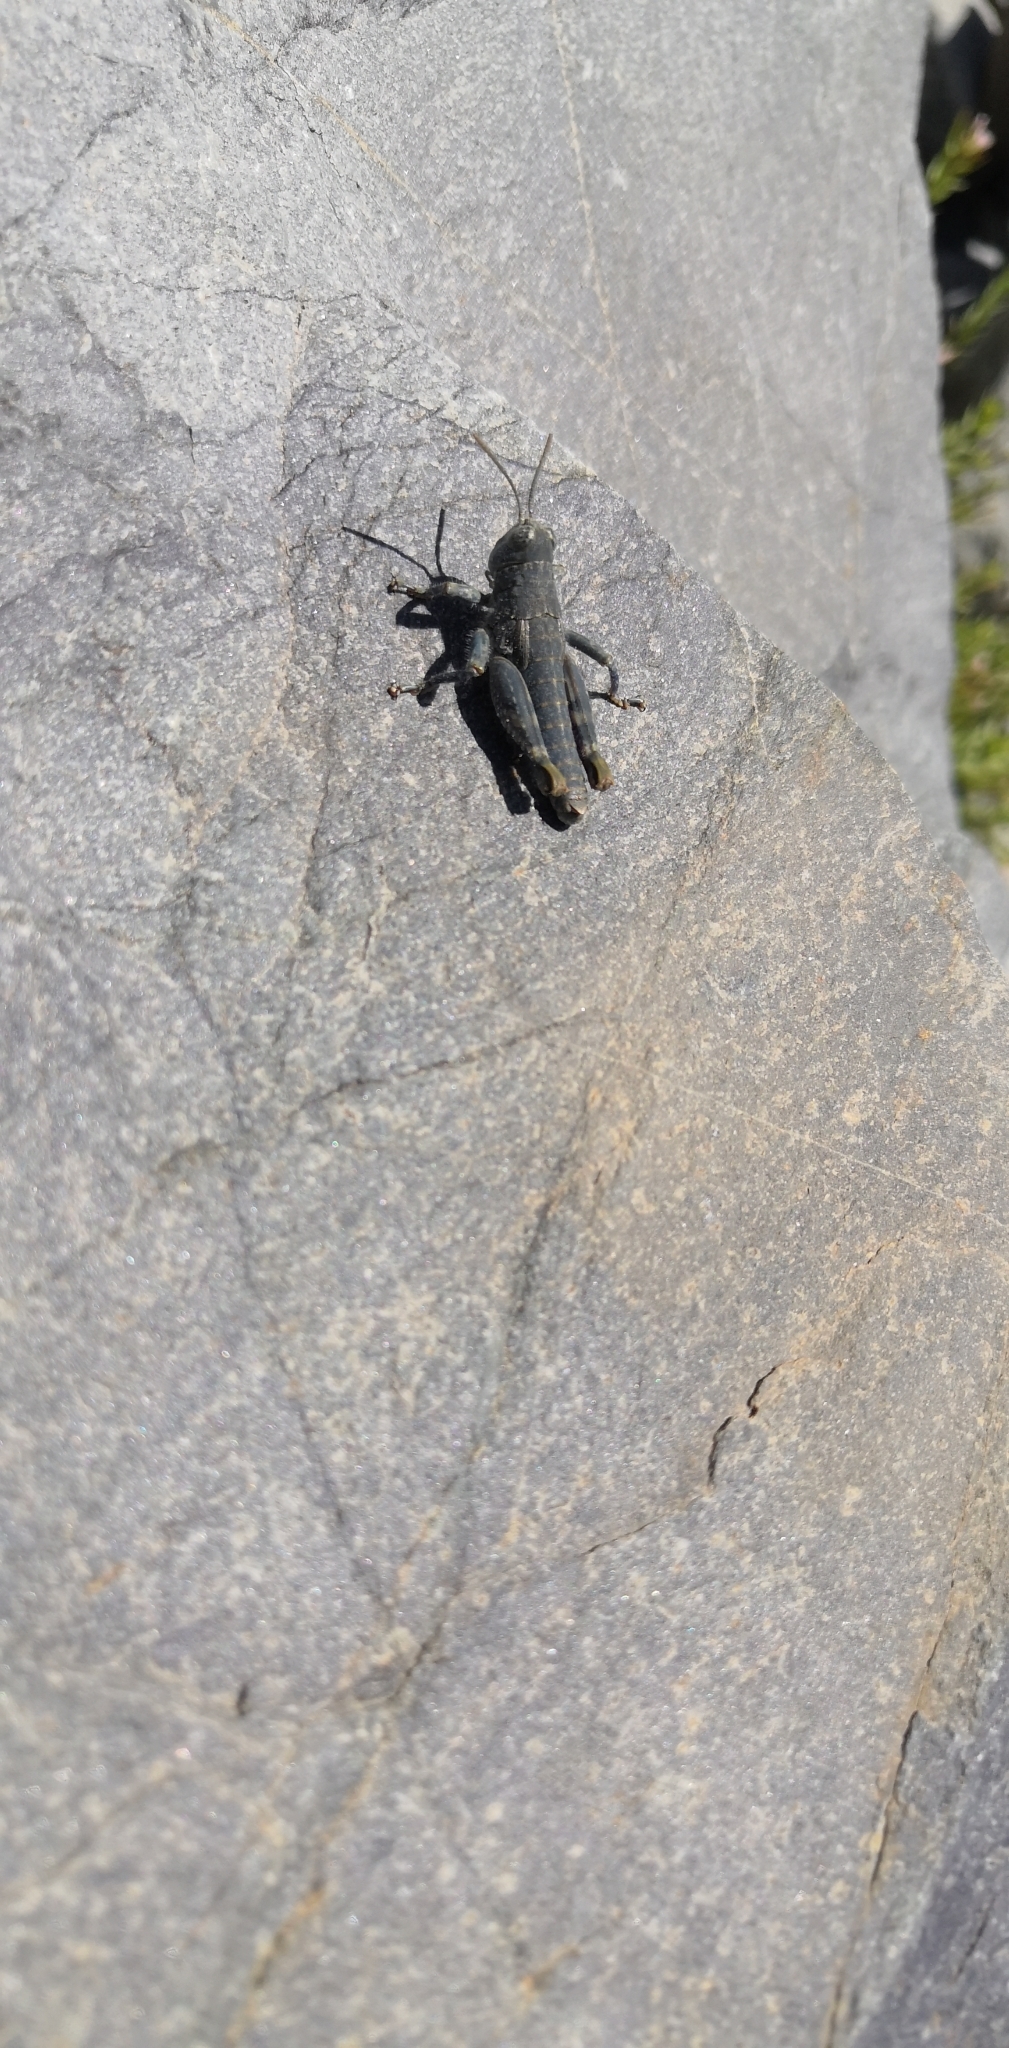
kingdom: Animalia
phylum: Arthropoda
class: Insecta
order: Orthoptera
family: Acrididae
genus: Sigaus
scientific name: Sigaus
